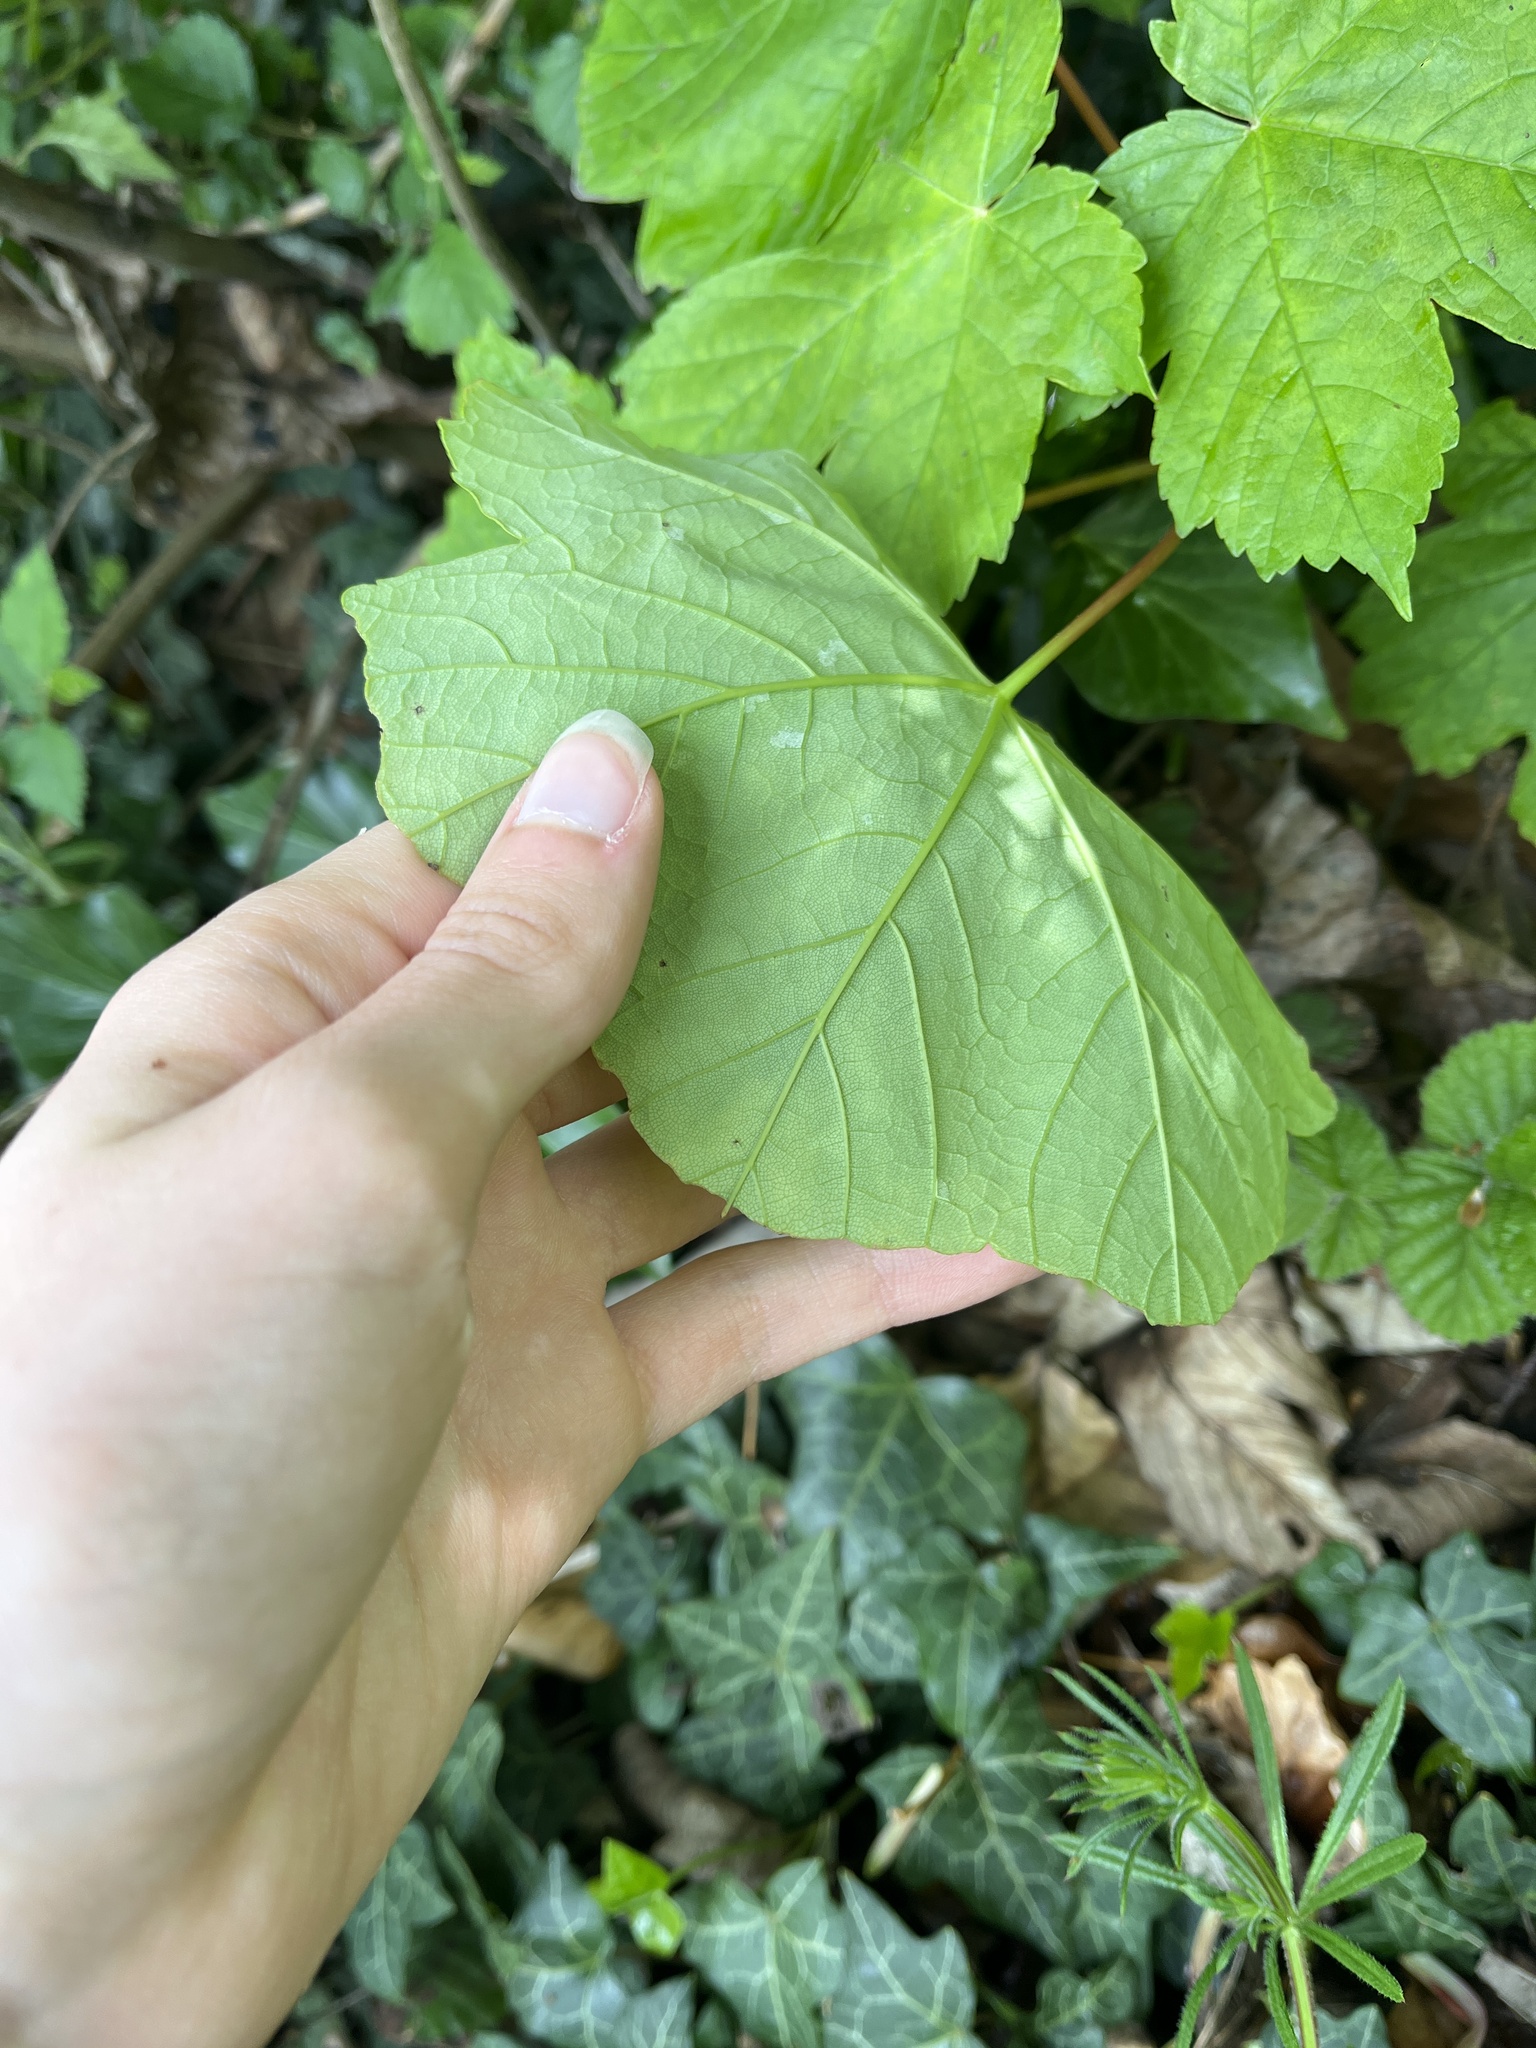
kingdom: Plantae
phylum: Tracheophyta
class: Magnoliopsida
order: Sapindales
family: Sapindaceae
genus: Acer
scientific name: Acer pseudoplatanus
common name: Sycamore
